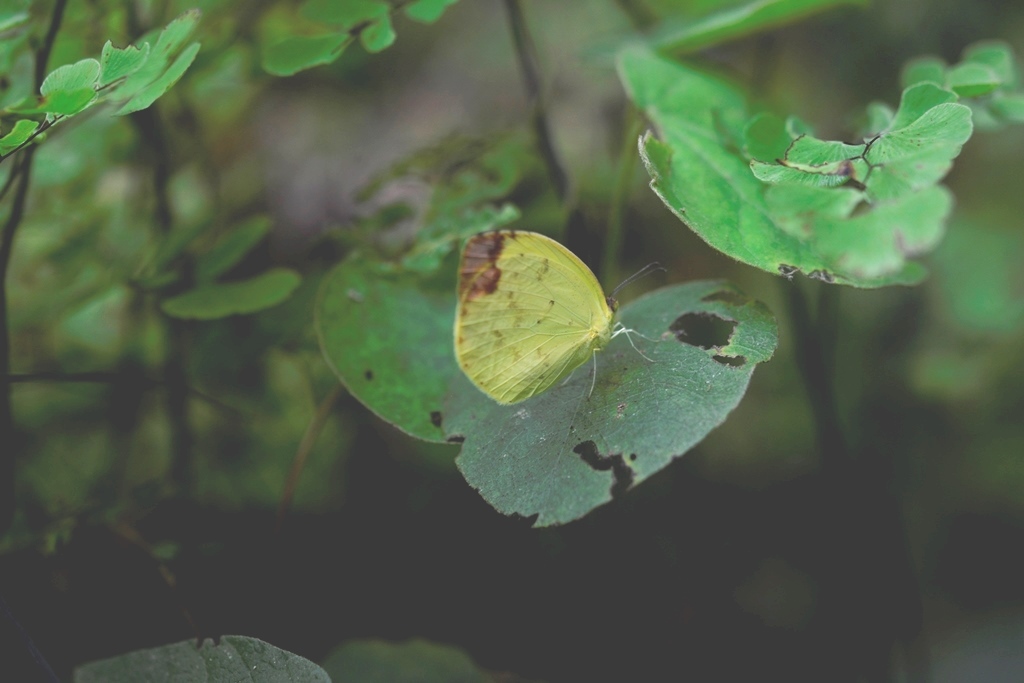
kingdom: Animalia
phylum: Arthropoda
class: Insecta
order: Lepidoptera
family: Pieridae
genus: Pyrisitia
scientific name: Pyrisitia westwoodi
